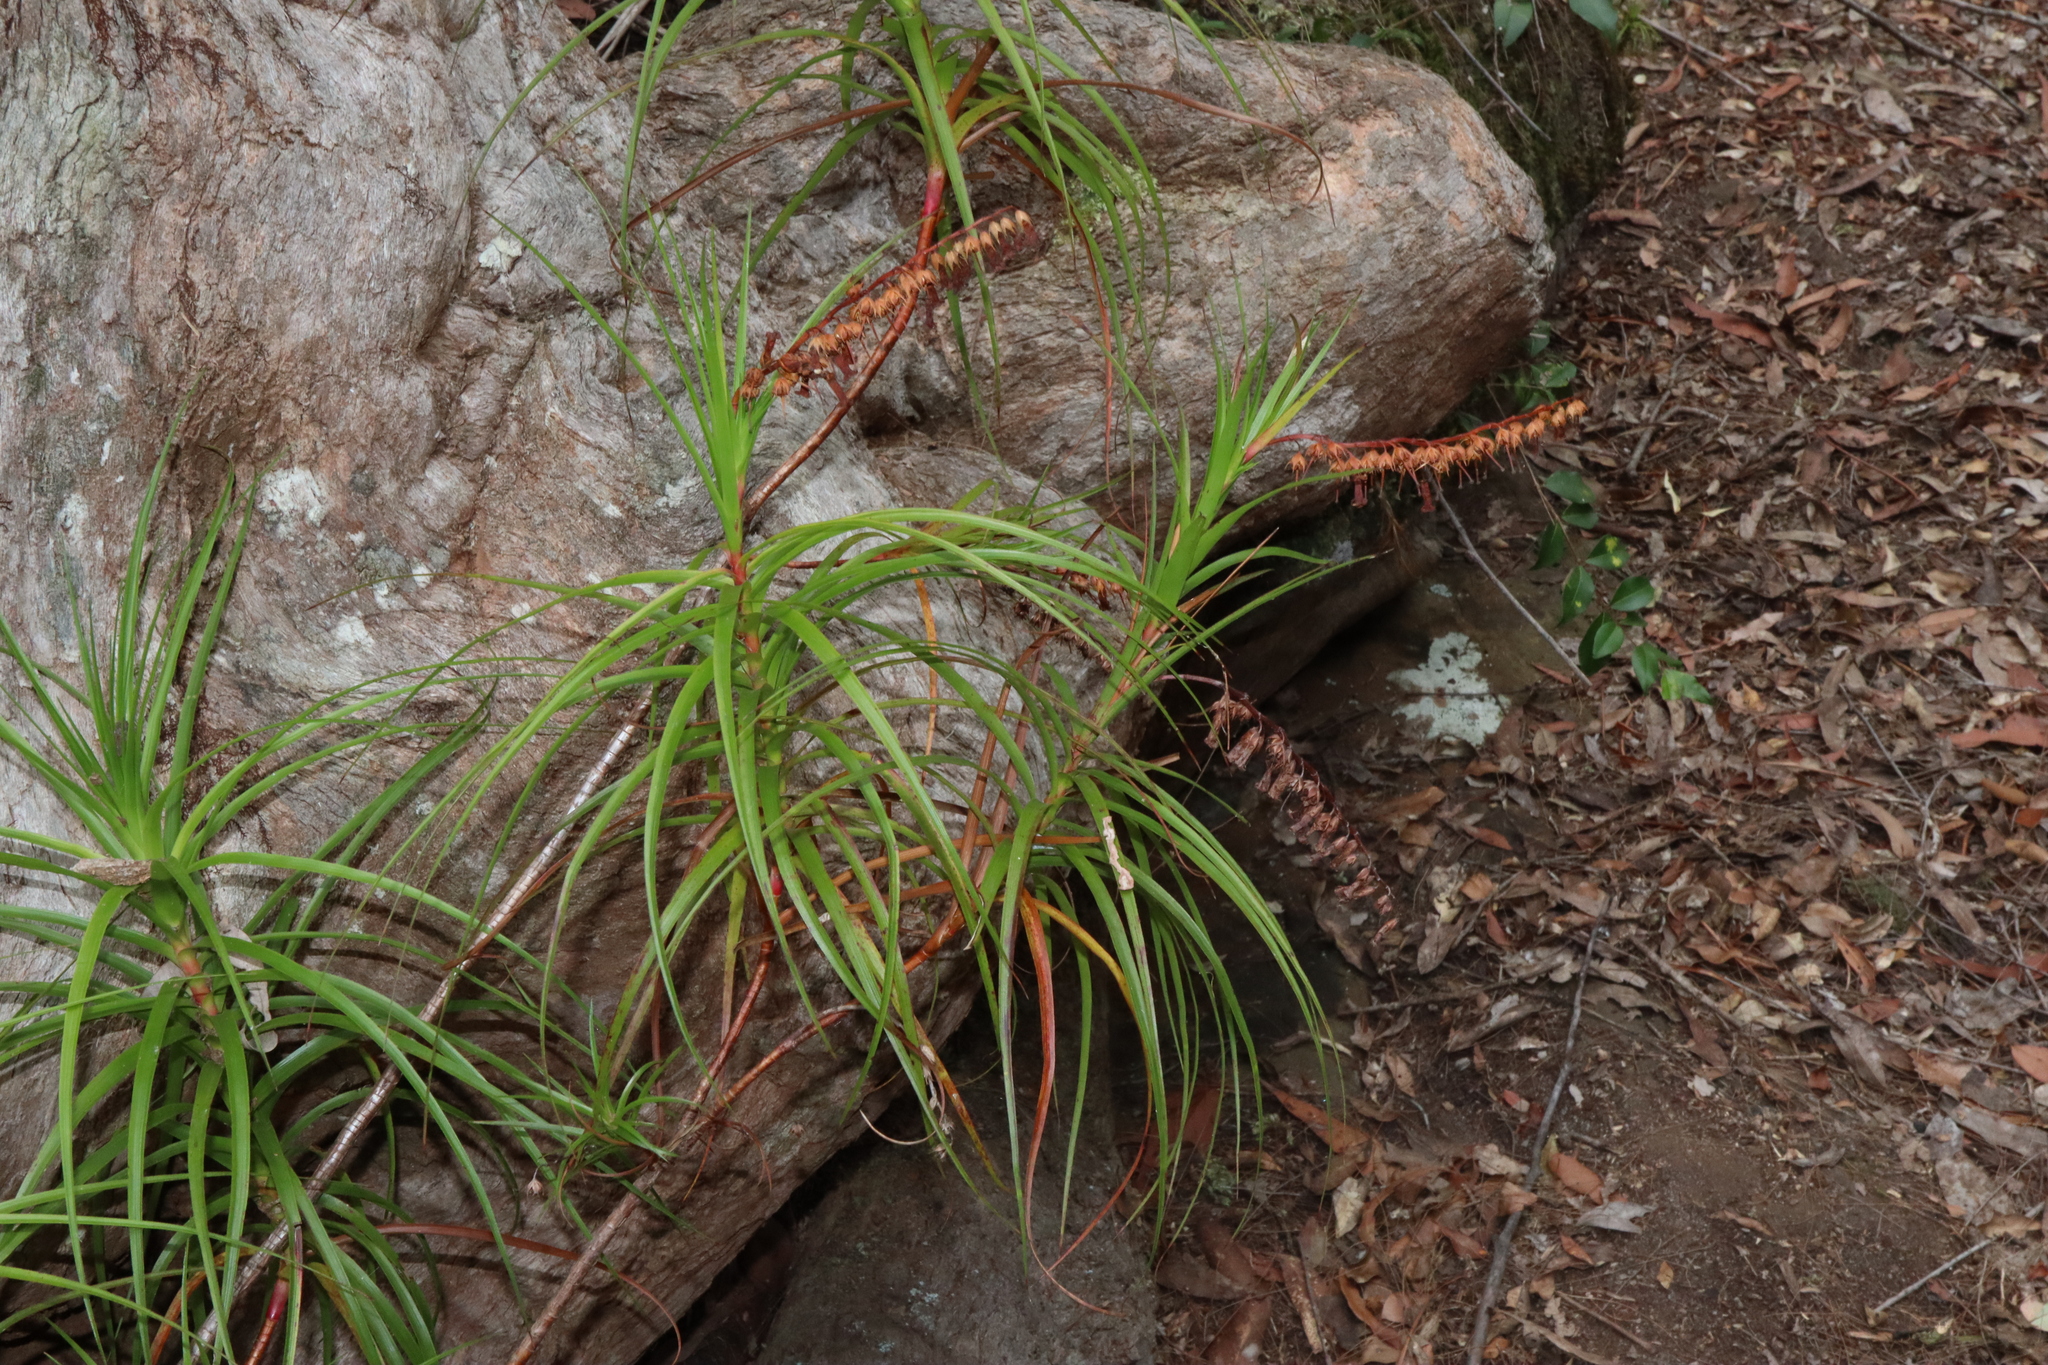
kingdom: Plantae
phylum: Tracheophyta
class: Magnoliopsida
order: Ericales
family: Ericaceae
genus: Dracophyllum
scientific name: Dracophyllum secundum
